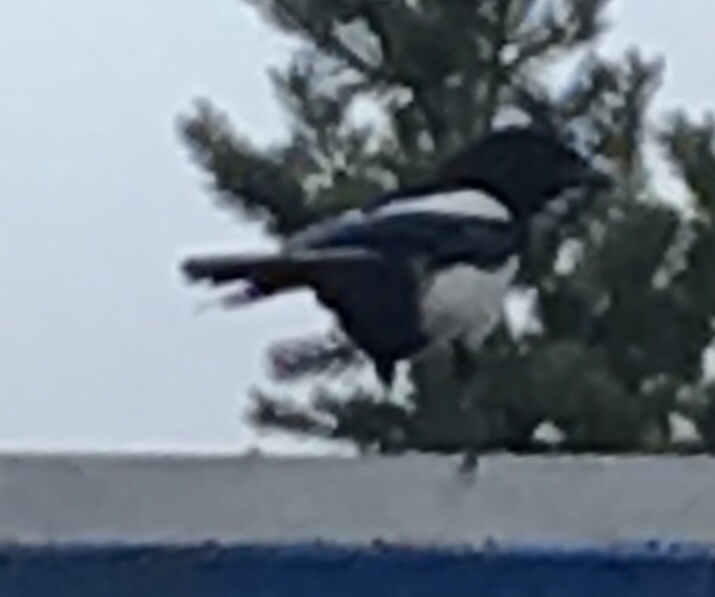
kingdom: Animalia
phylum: Chordata
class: Aves
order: Passeriformes
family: Corvidae
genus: Pica
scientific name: Pica pica
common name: Eurasian magpie
